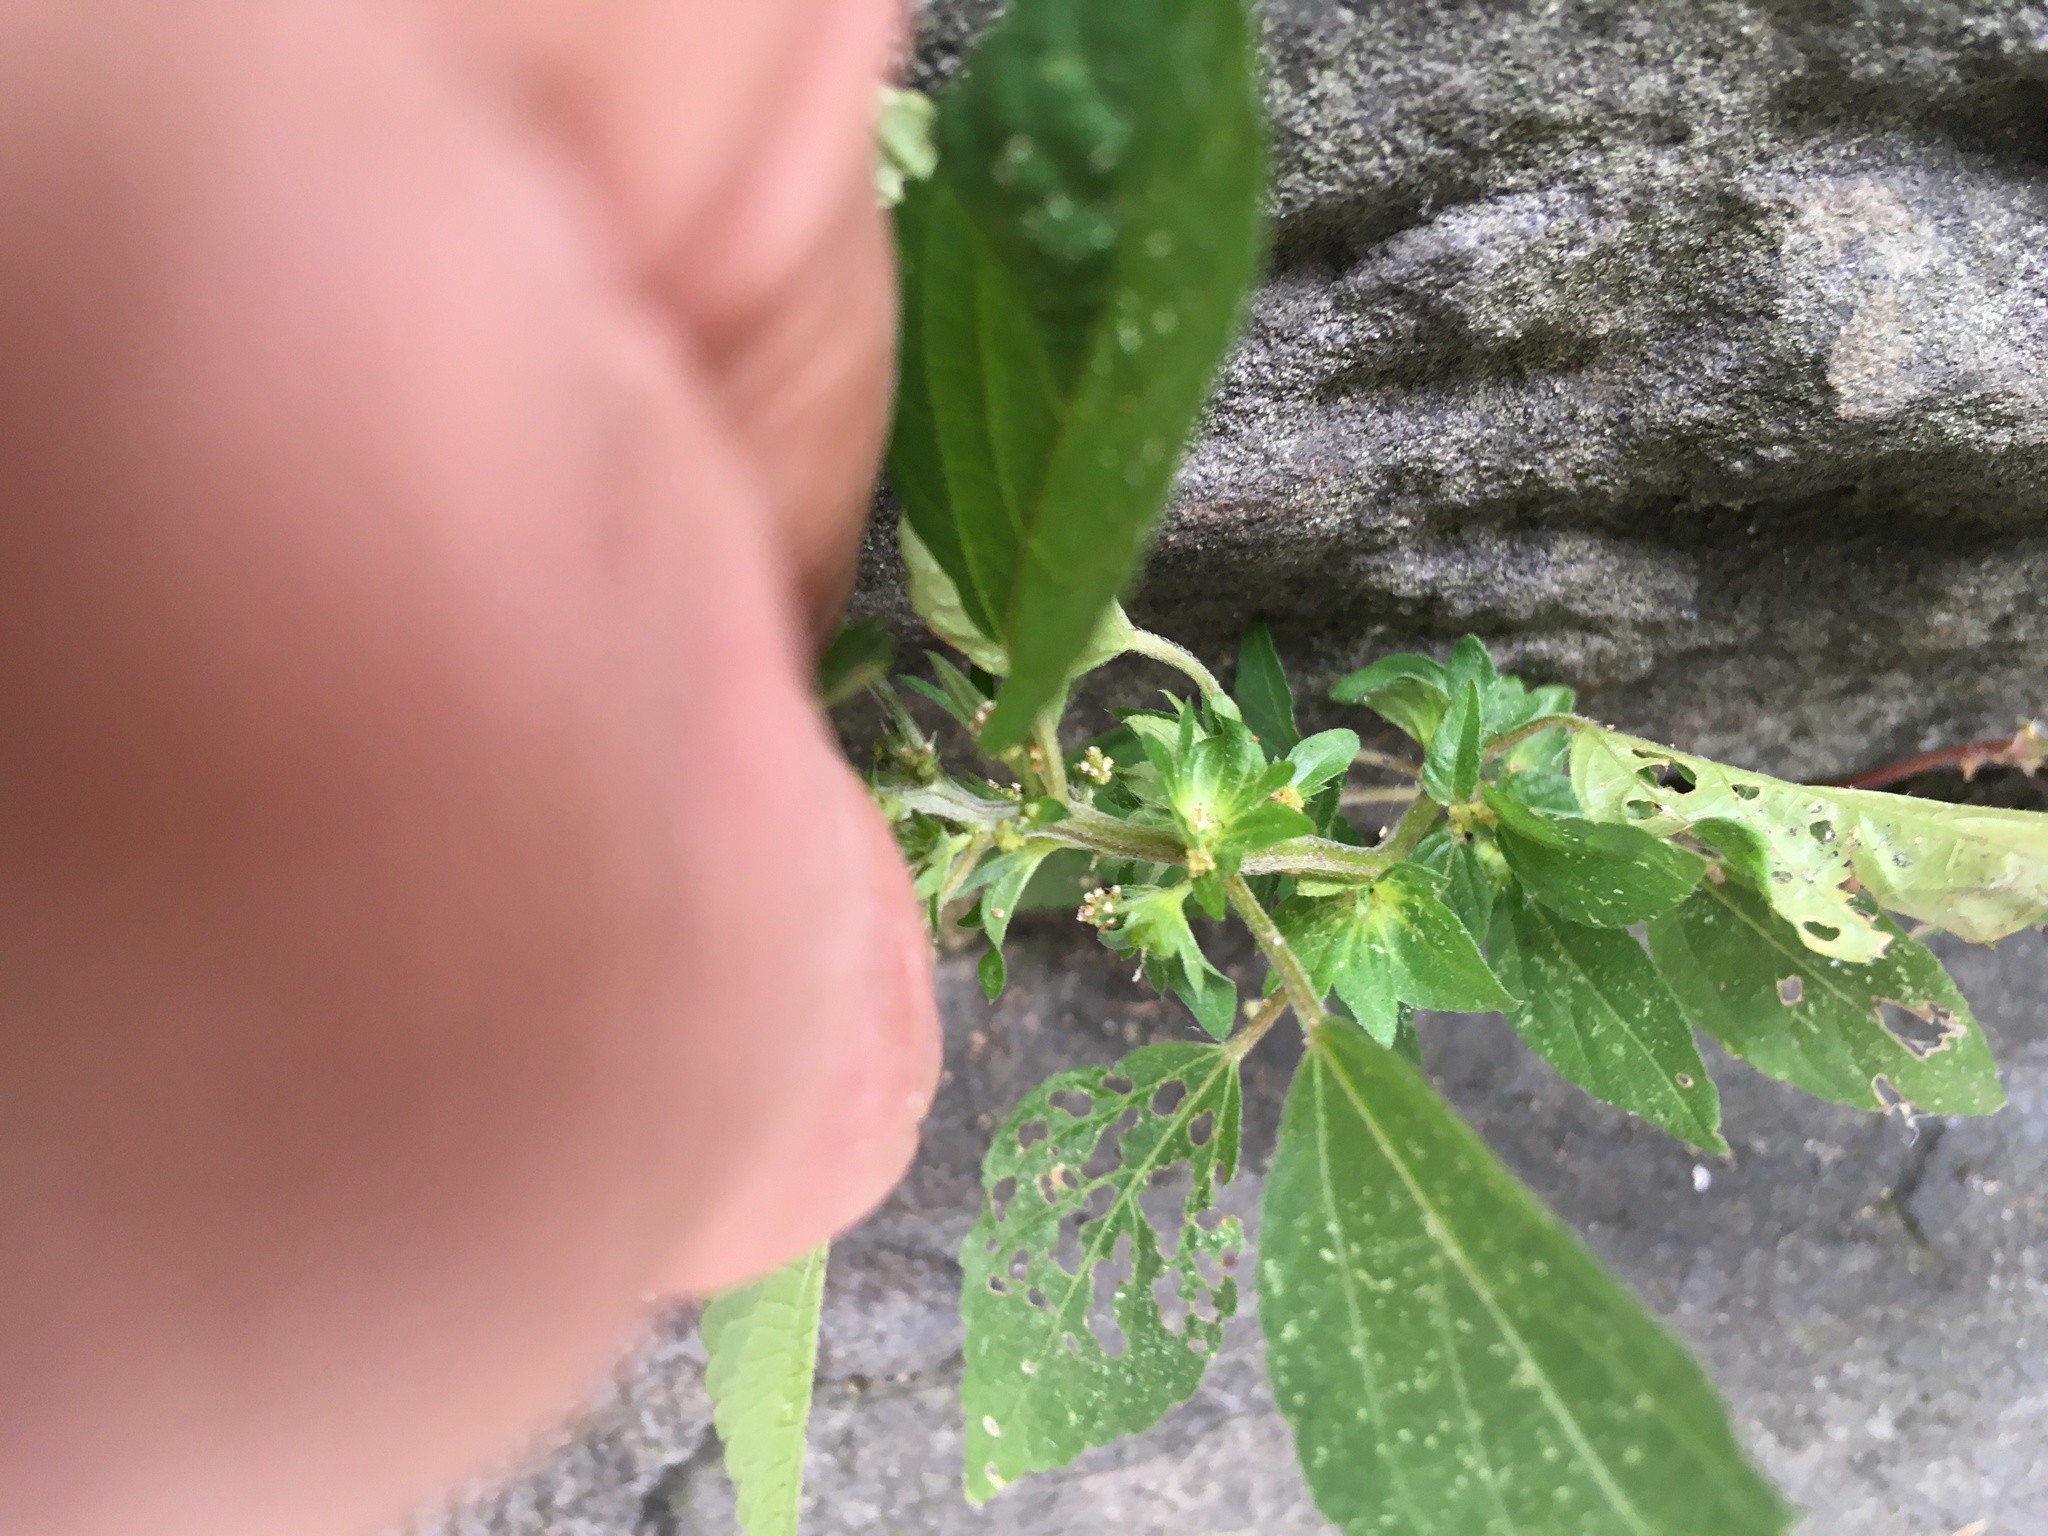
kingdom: Plantae
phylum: Tracheophyta
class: Magnoliopsida
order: Malpighiales
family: Euphorbiaceae
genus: Acalypha
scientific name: Acalypha rhomboidea
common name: Rhombic copperleaf
